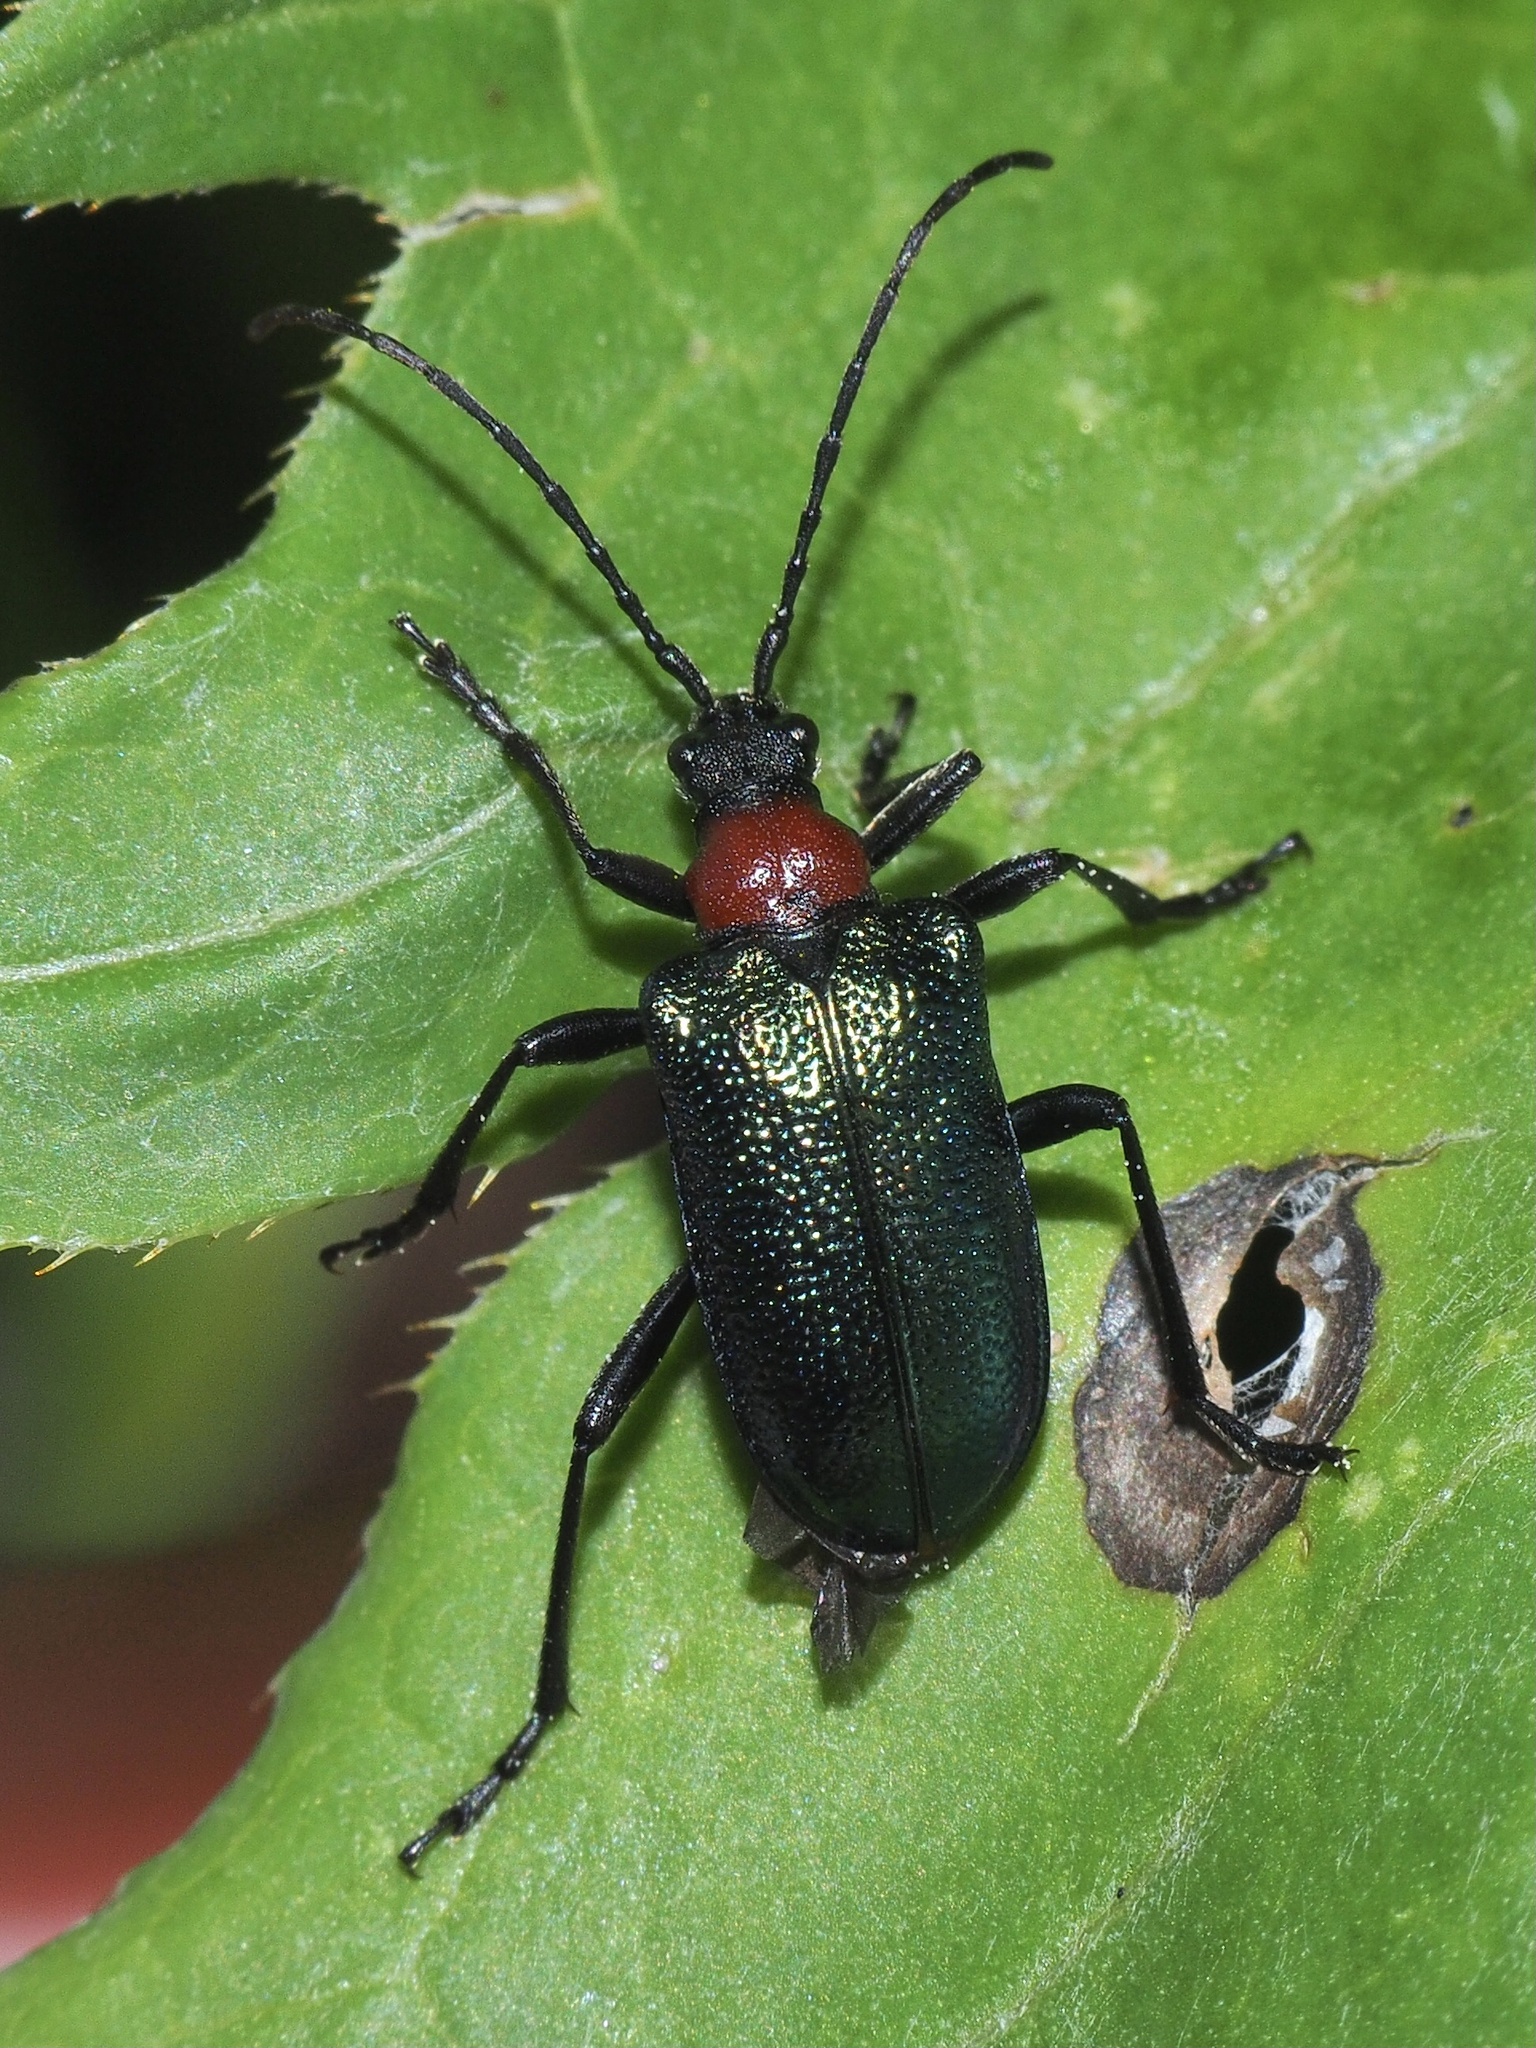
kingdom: Animalia
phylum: Arthropoda
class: Insecta
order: Coleoptera
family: Cerambycidae
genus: Gaurotes
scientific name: Gaurotes virginea
